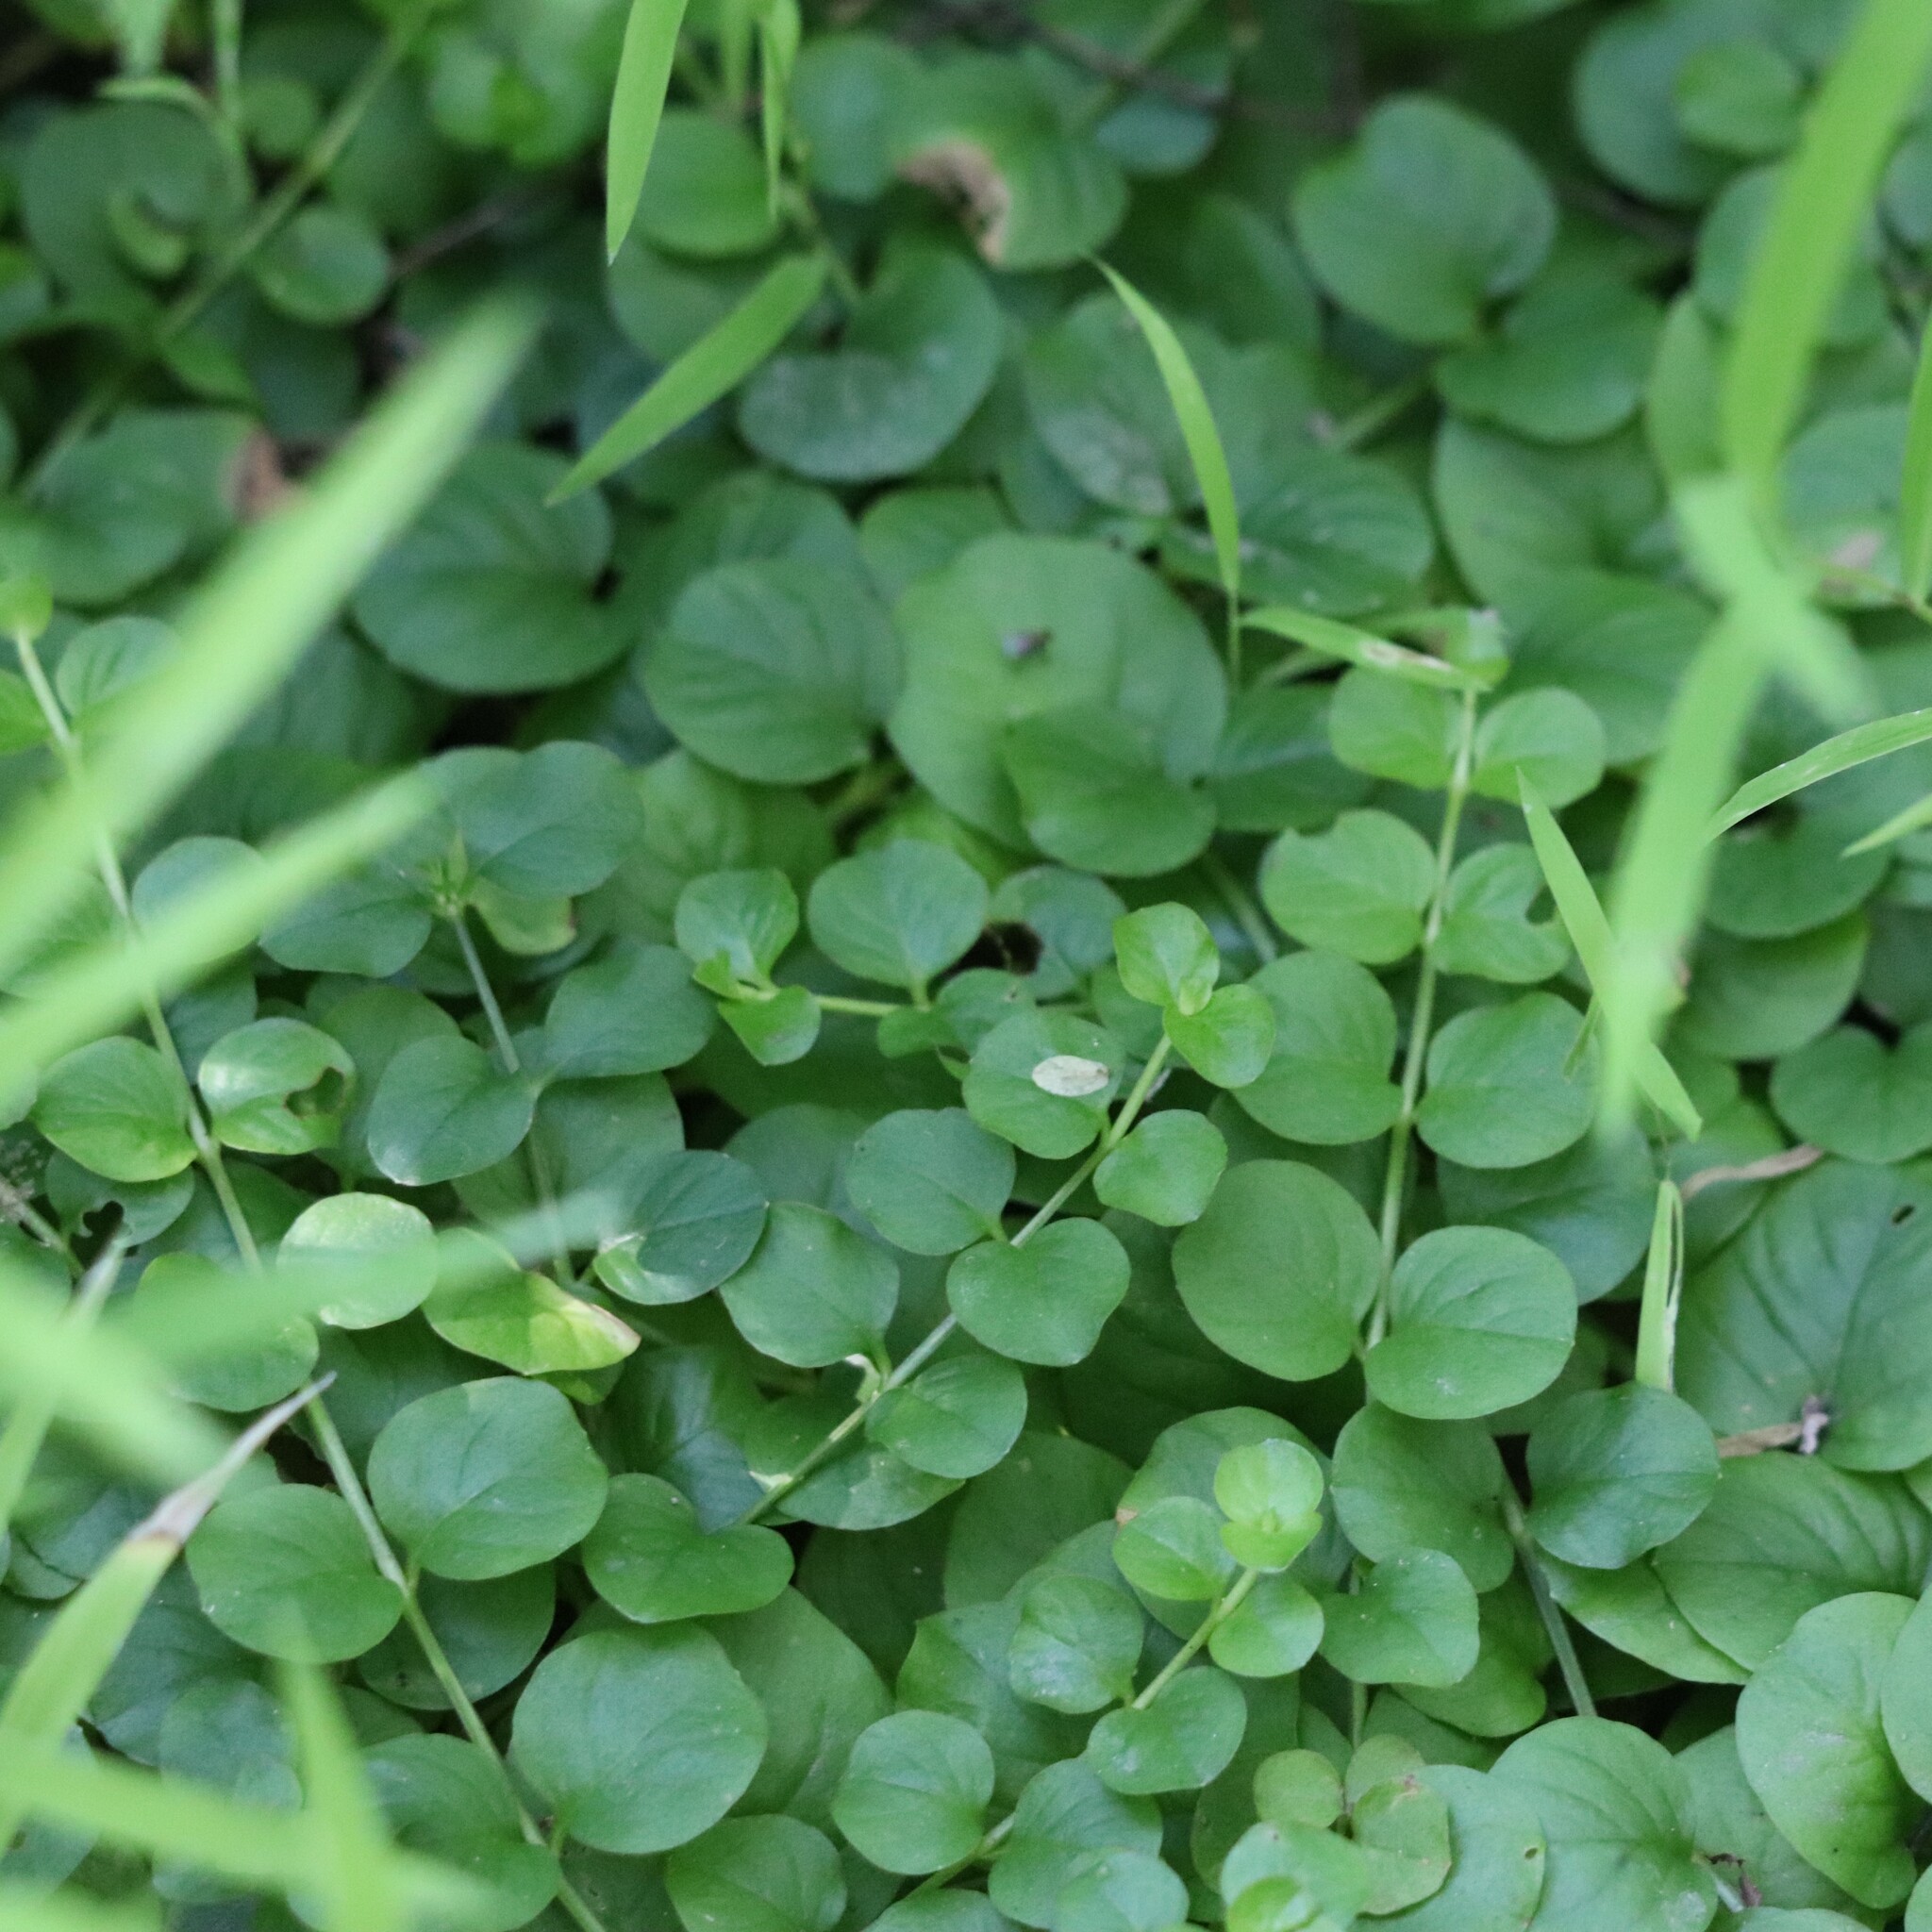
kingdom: Plantae
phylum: Tracheophyta
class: Magnoliopsida
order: Ericales
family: Primulaceae
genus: Lysimachia
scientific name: Lysimachia nummularia
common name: Moneywort
